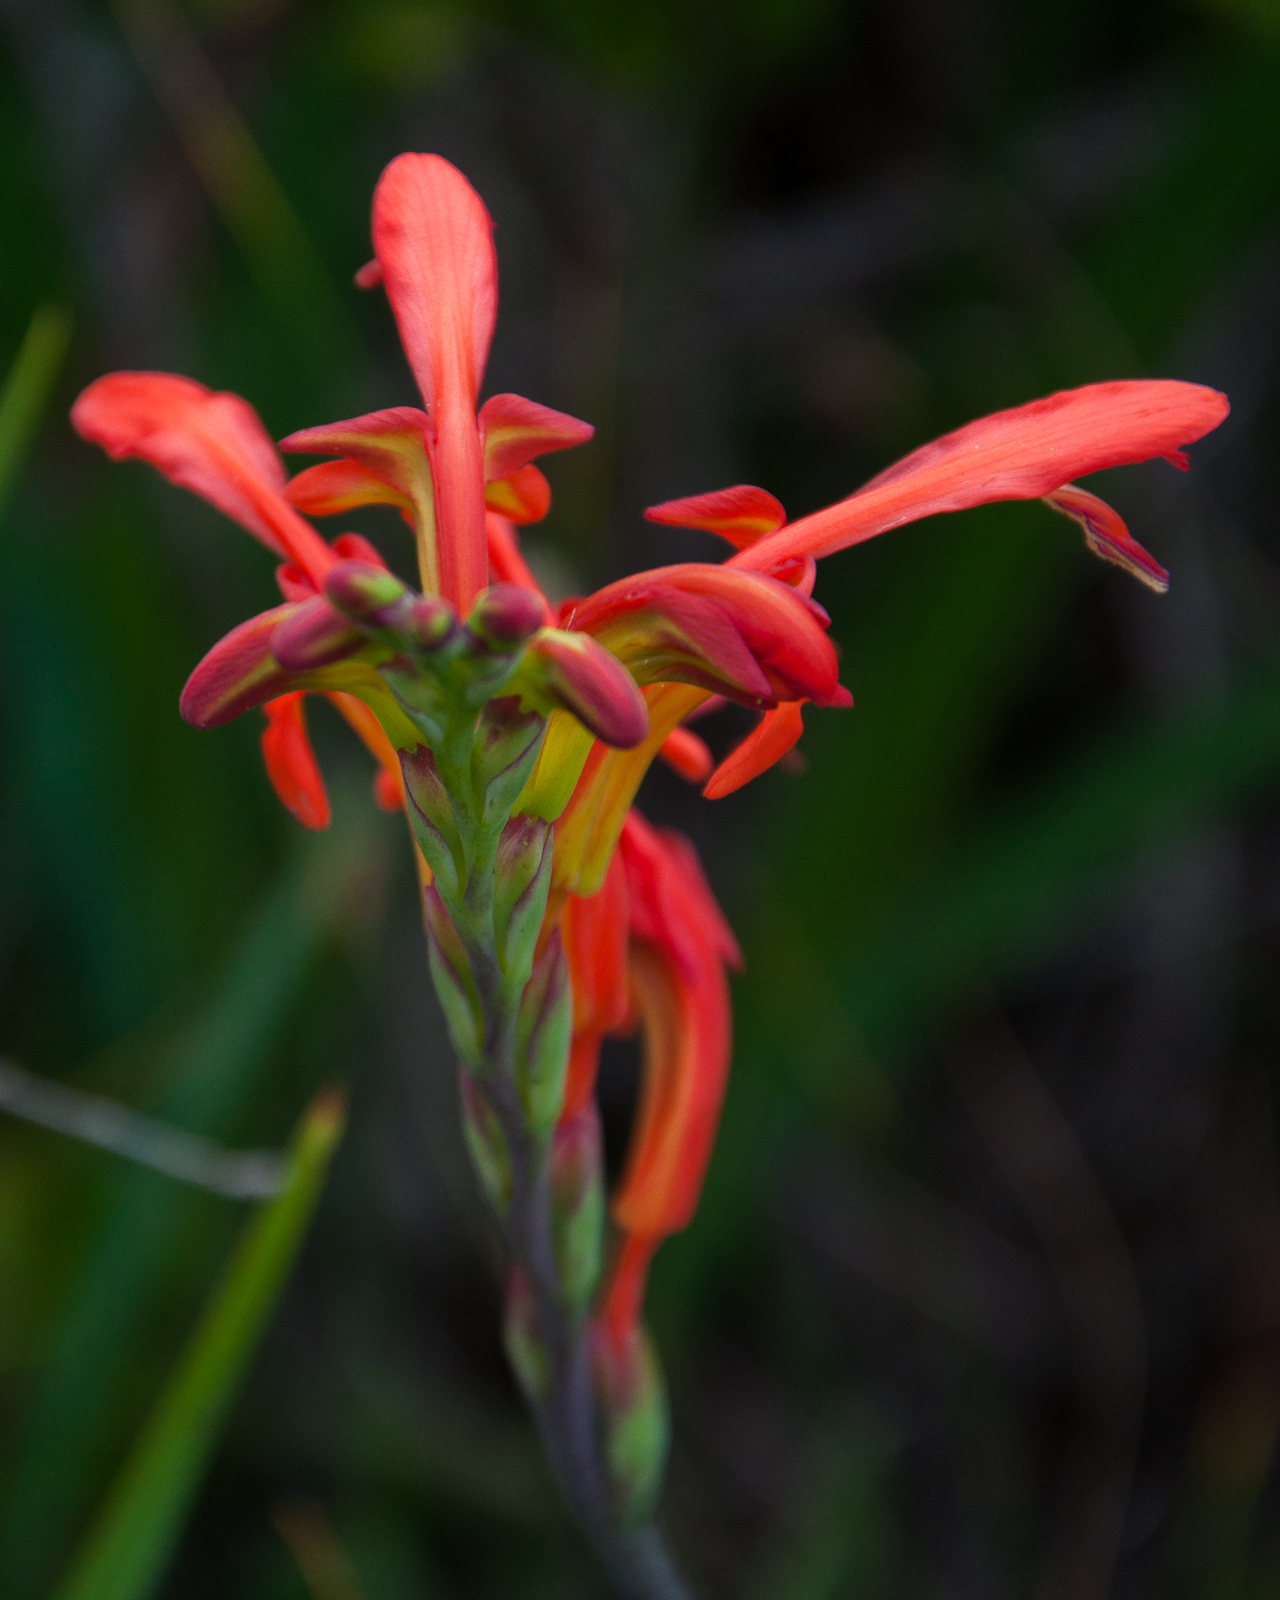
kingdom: Plantae
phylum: Tracheophyta
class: Liliopsida
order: Asparagales
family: Iridaceae
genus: Chasmanthe
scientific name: Chasmanthe aethiopica
